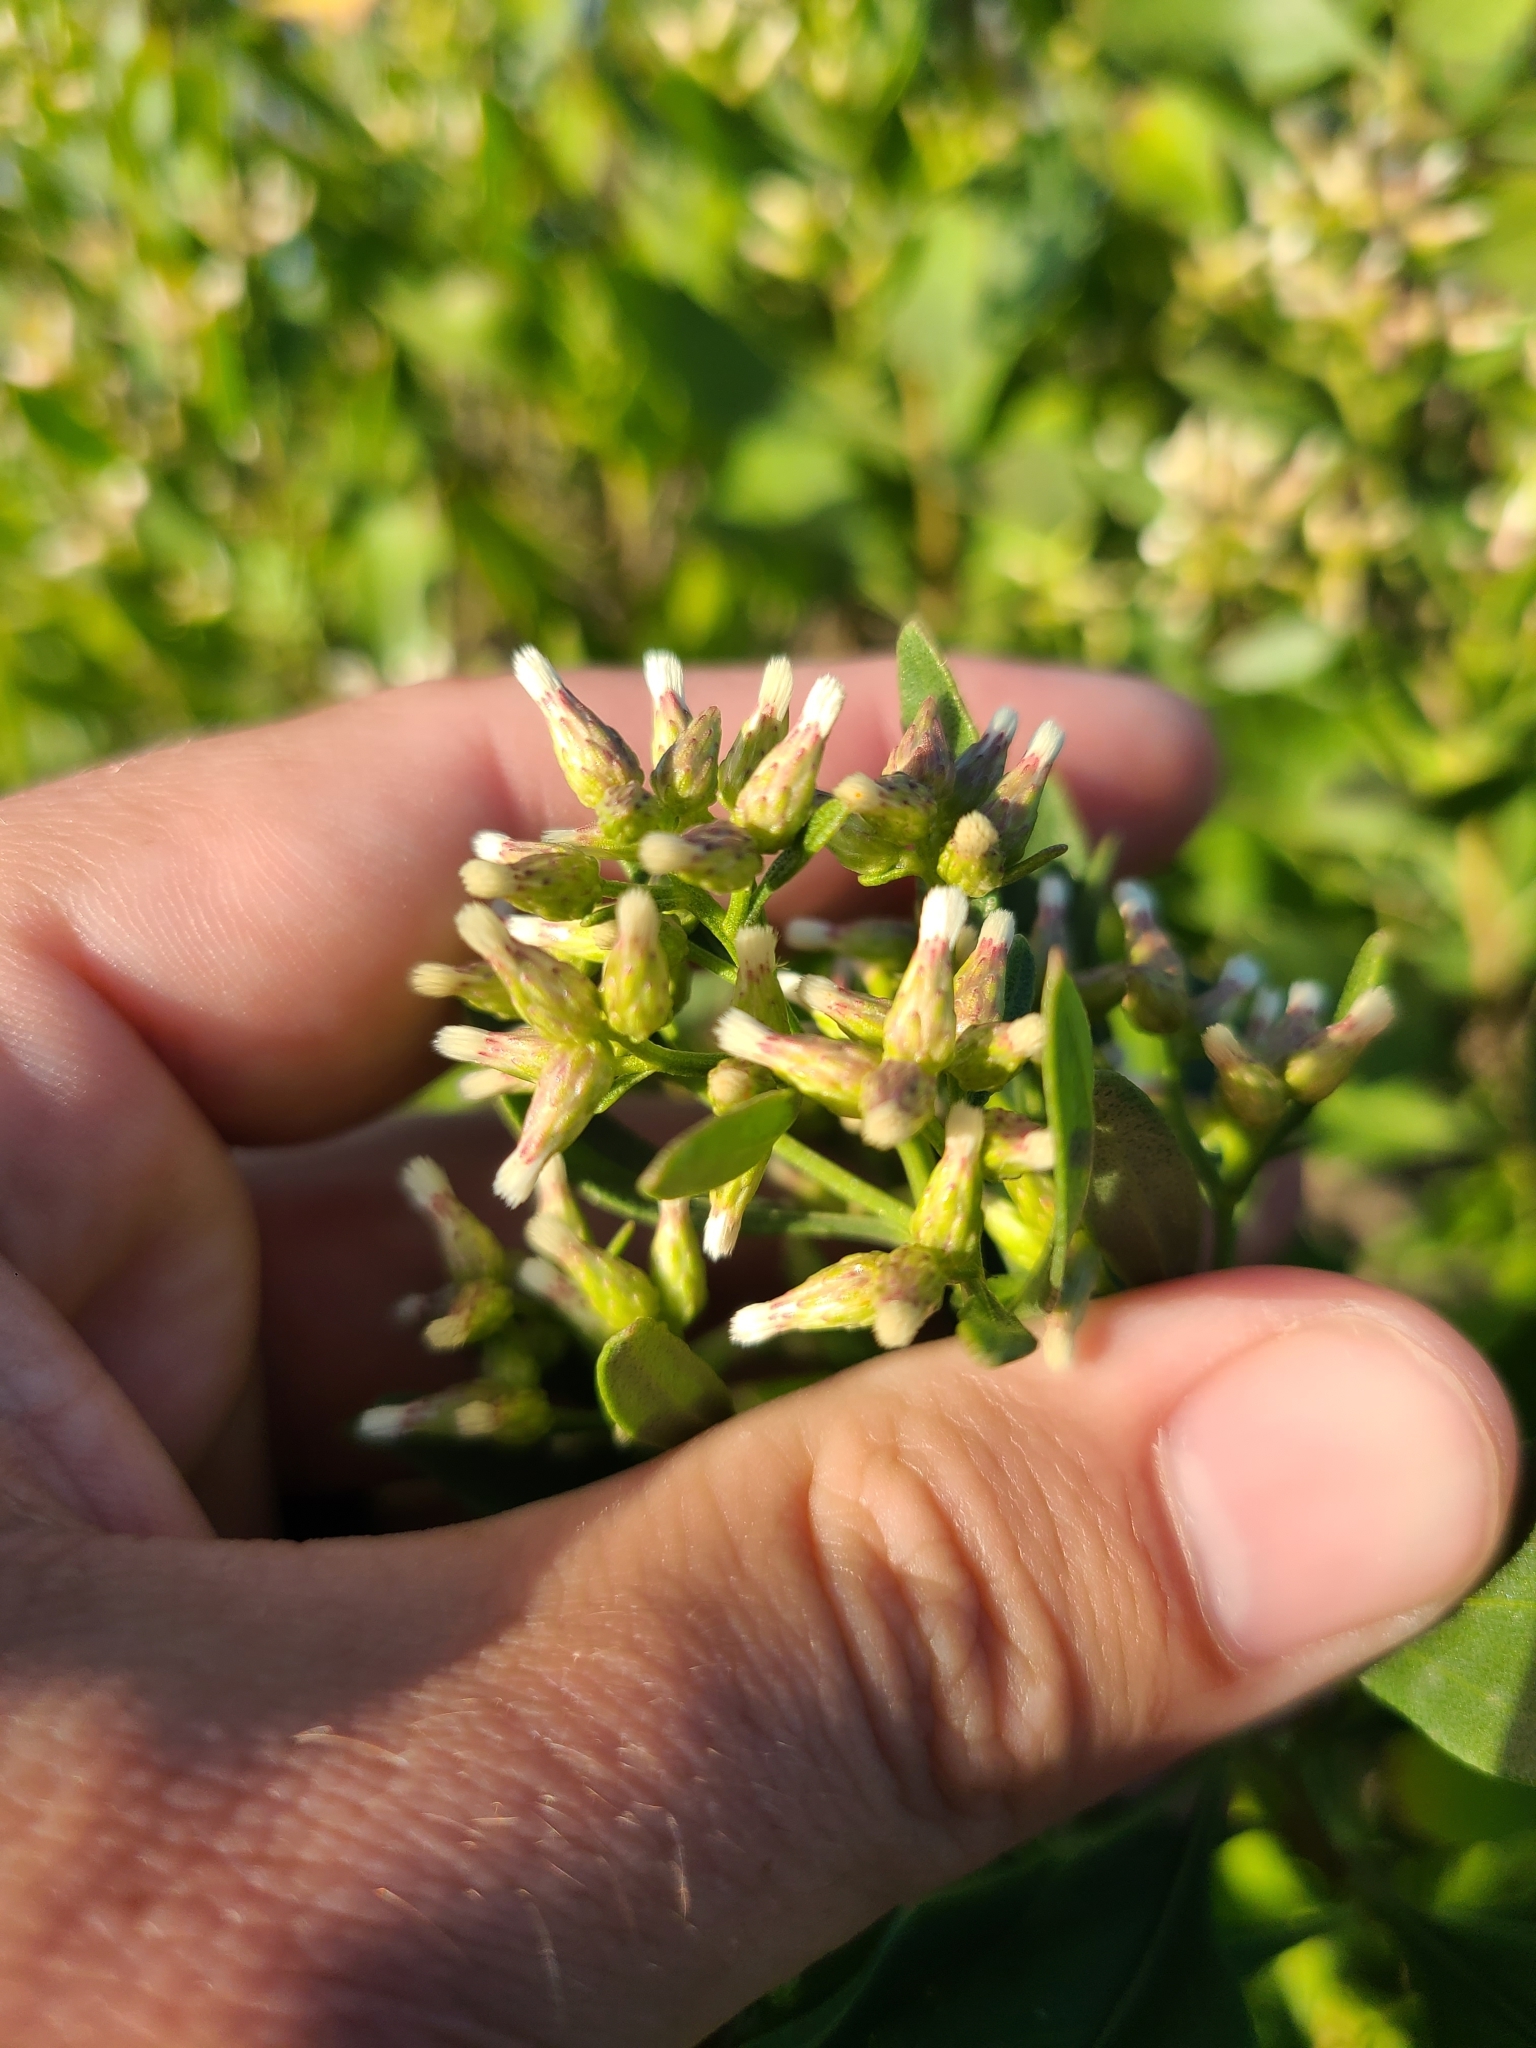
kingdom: Plantae
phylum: Tracheophyta
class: Magnoliopsida
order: Asterales
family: Asteraceae
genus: Baccharis
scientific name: Baccharis halimifolia
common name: Eastern baccharis
